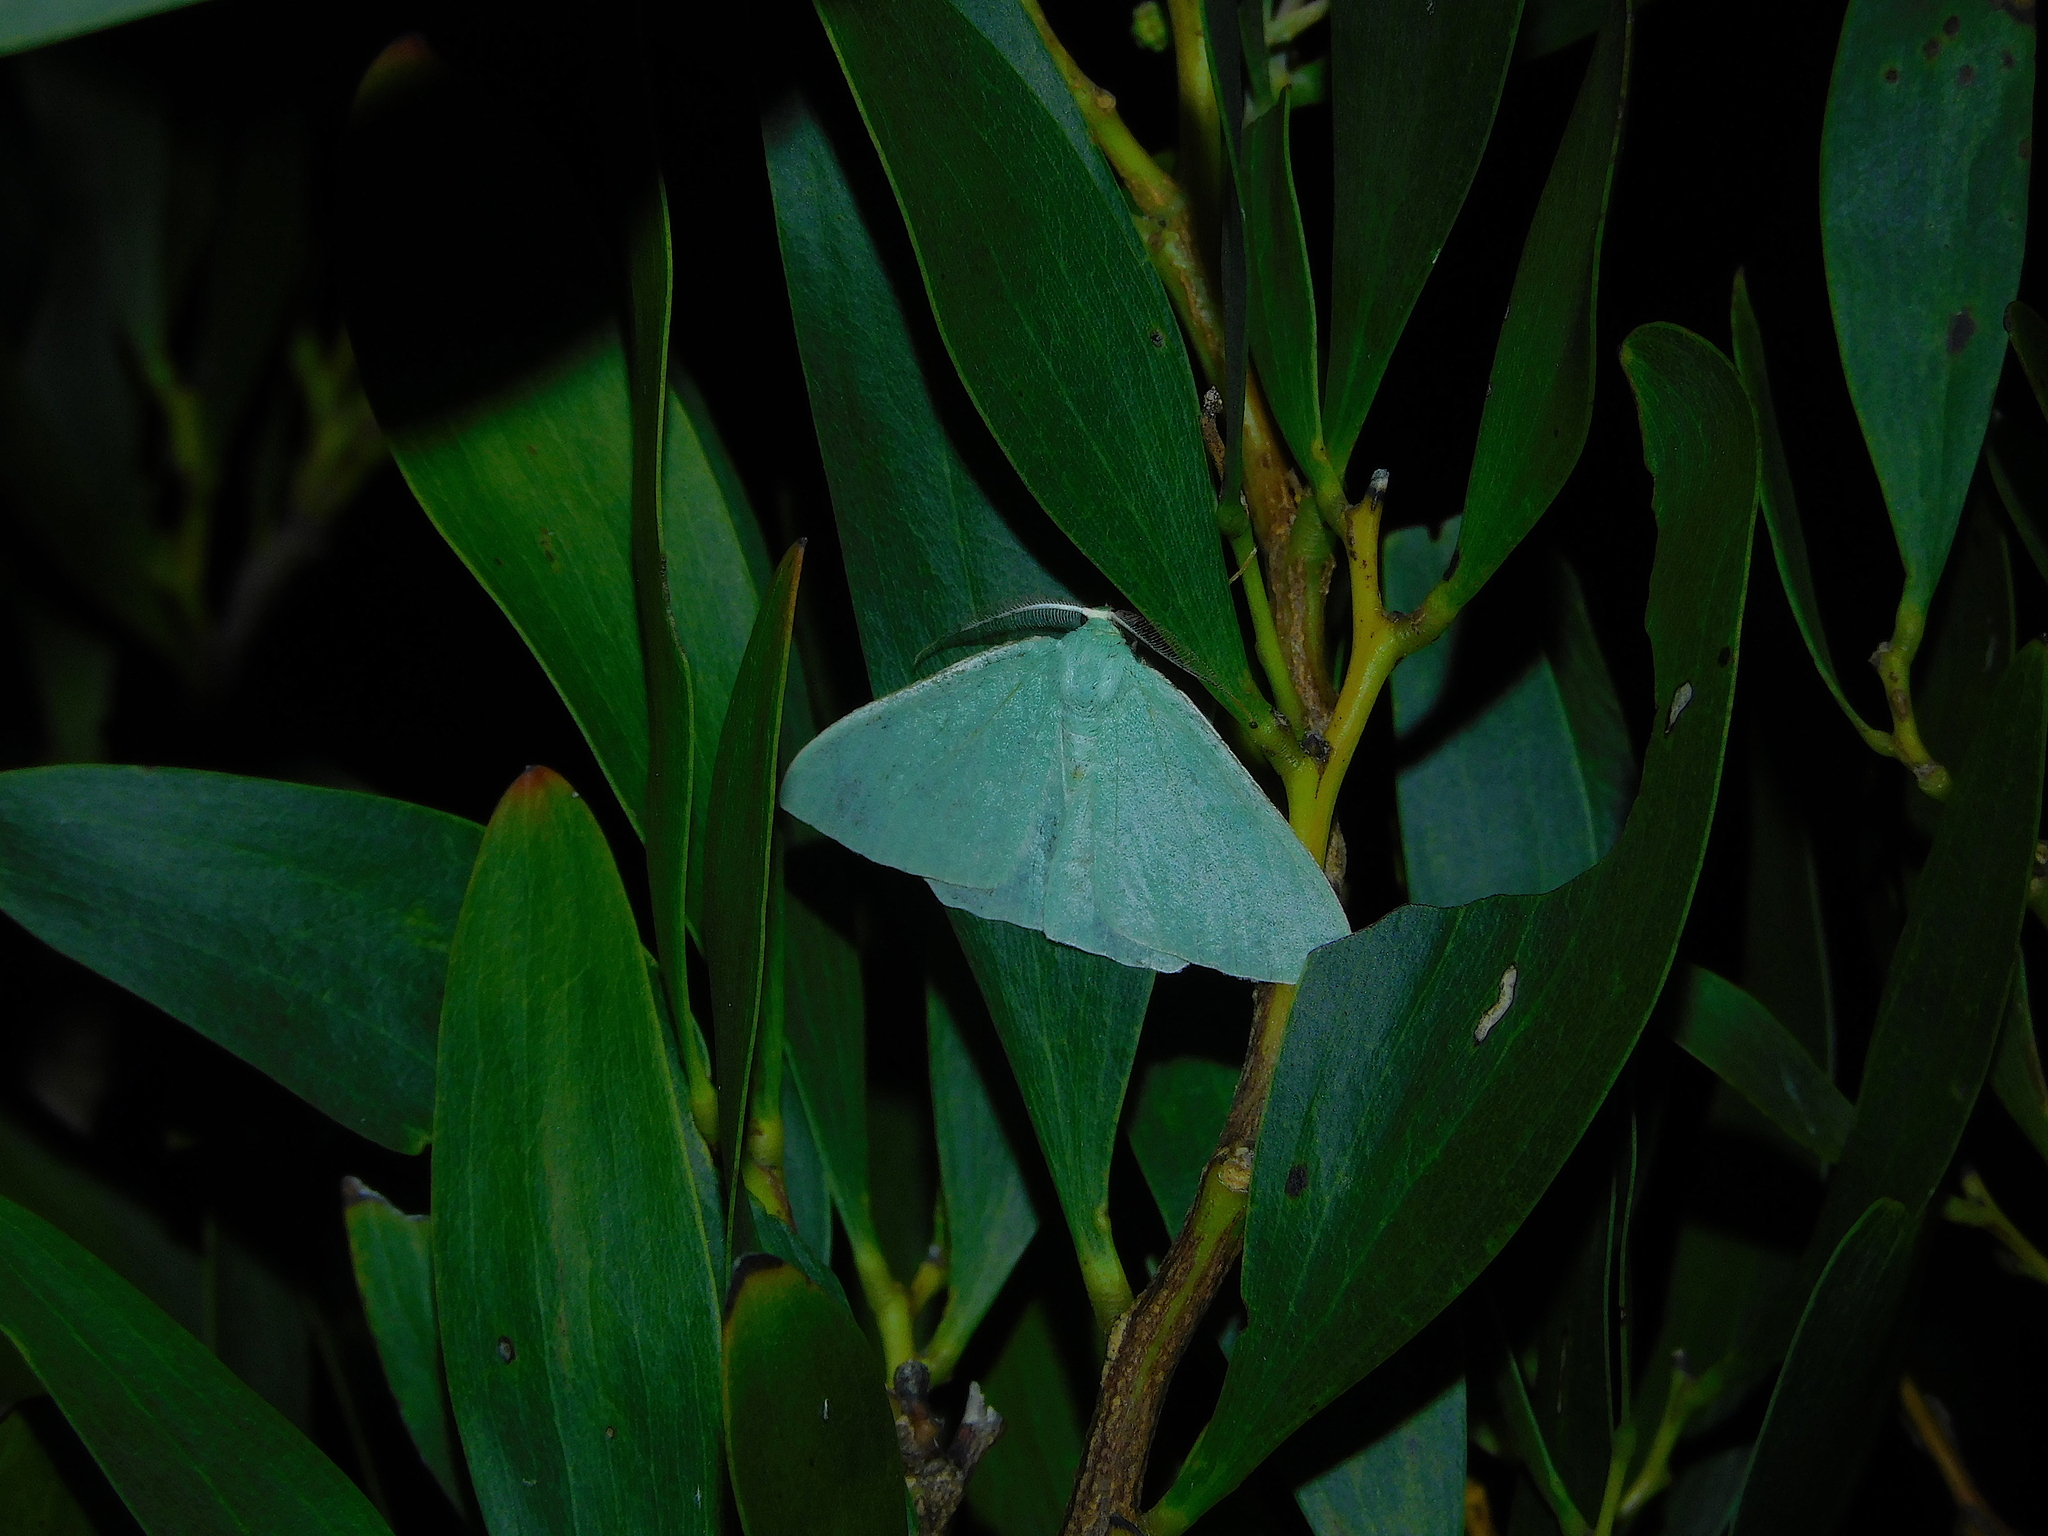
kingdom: Animalia
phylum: Arthropoda
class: Insecta
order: Lepidoptera
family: Geometridae
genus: Prasinocyma
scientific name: Prasinocyma semicrocea
